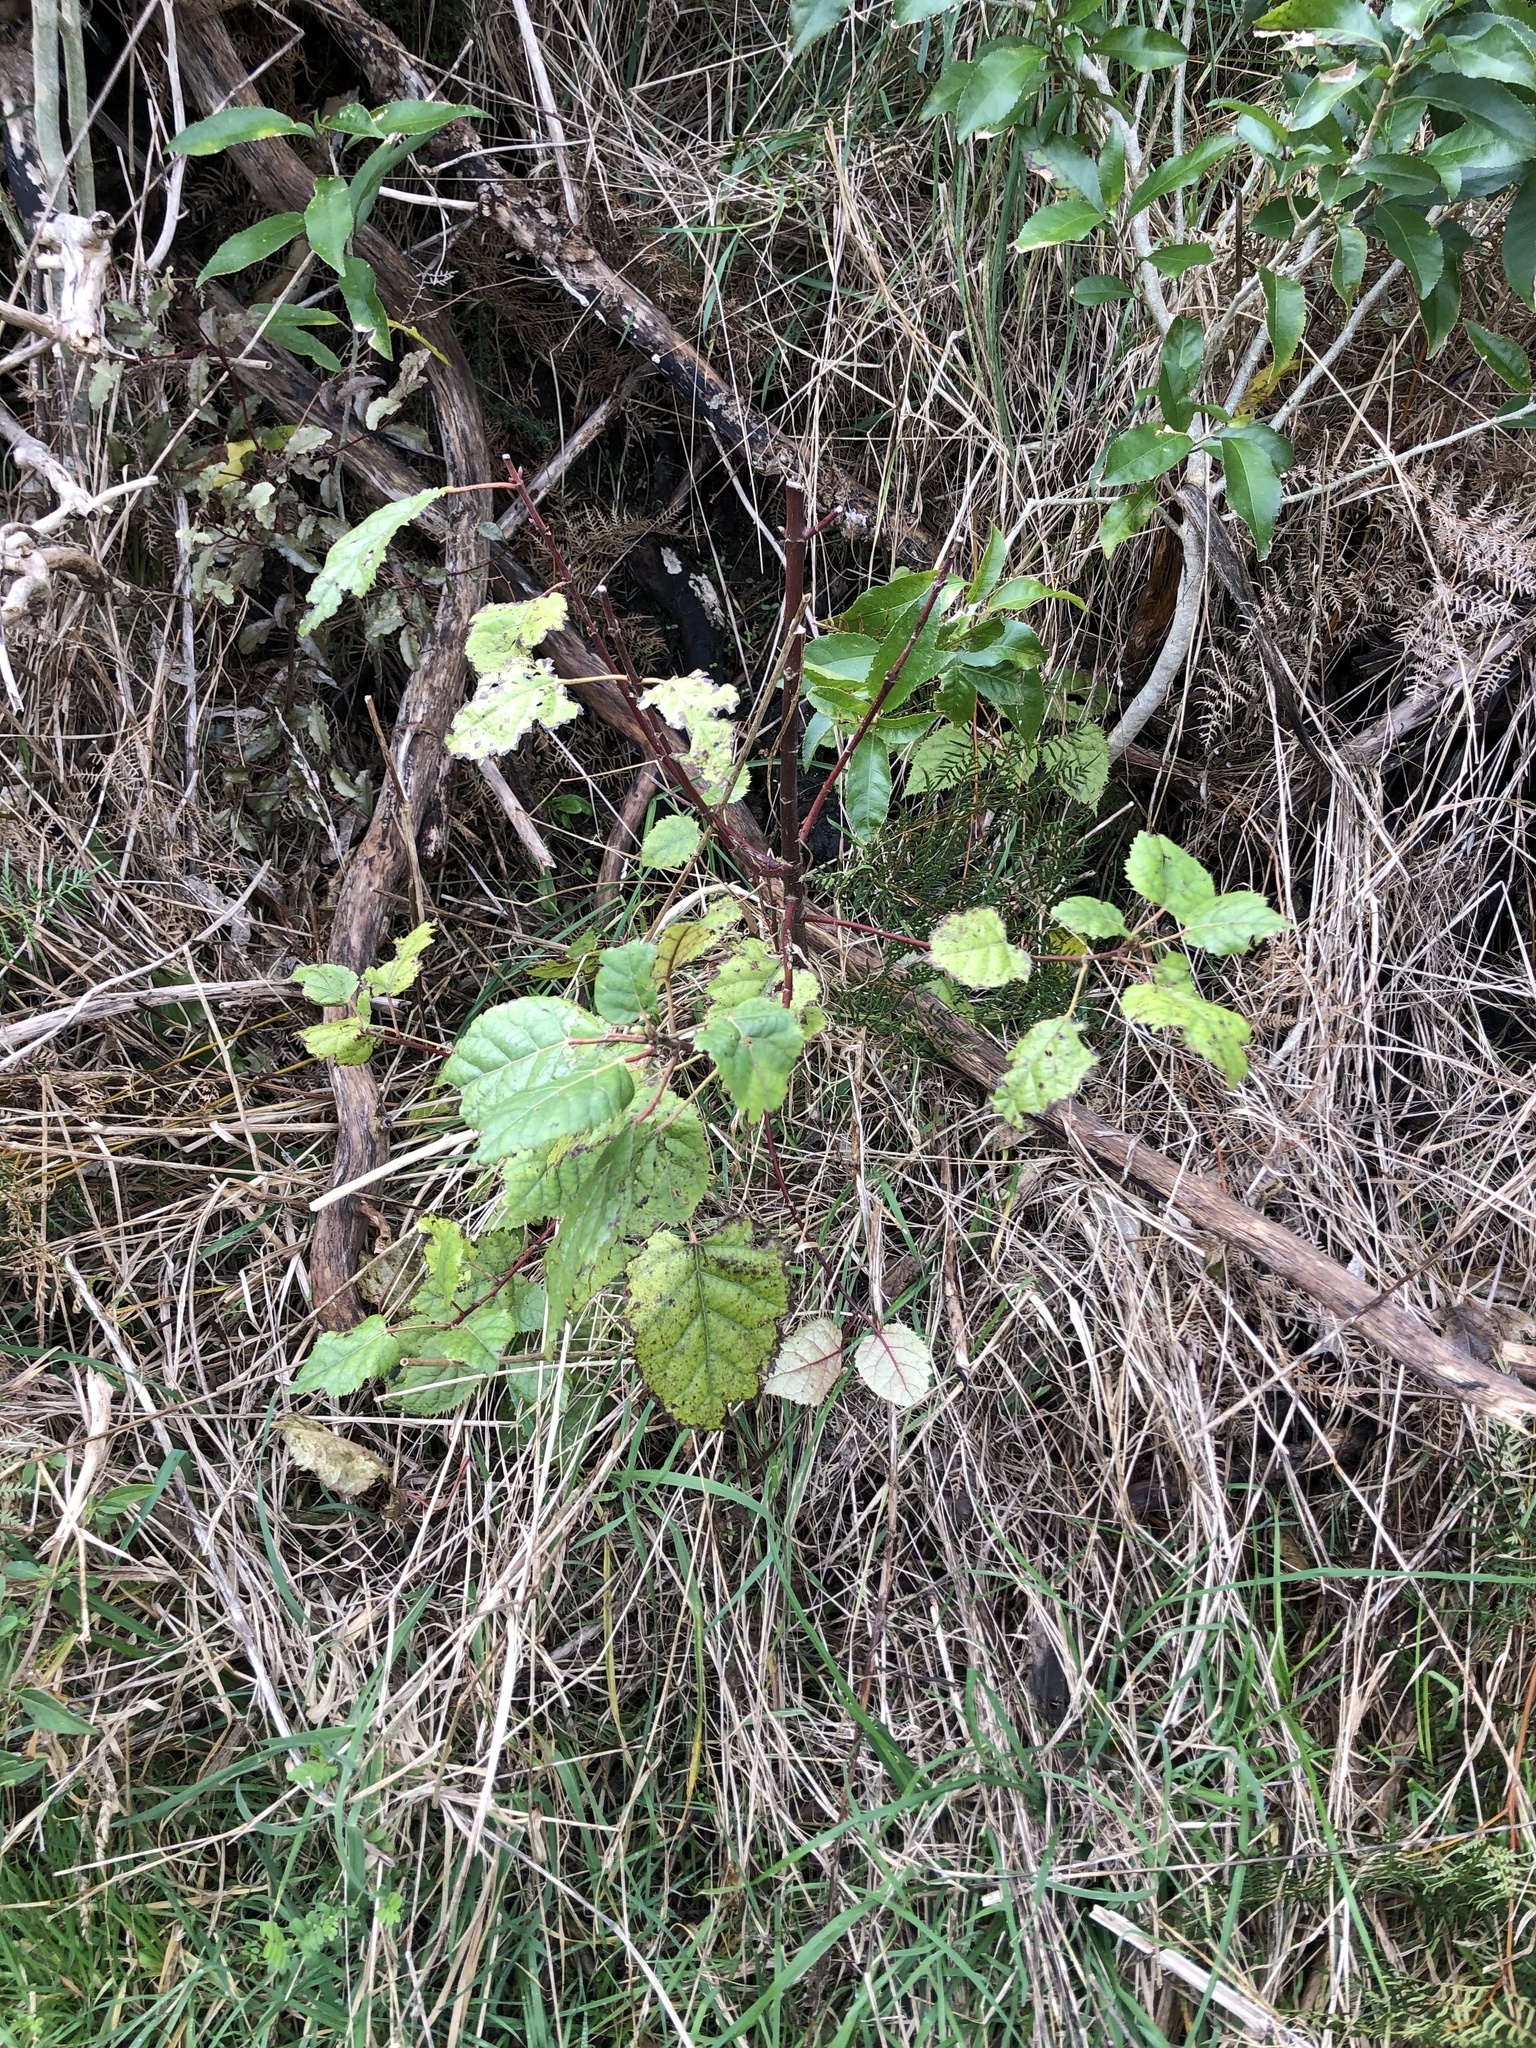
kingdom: Plantae
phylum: Tracheophyta
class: Magnoliopsida
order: Oxalidales
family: Elaeocarpaceae
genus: Aristotelia
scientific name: Aristotelia serrata
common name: New zealand wineberry
